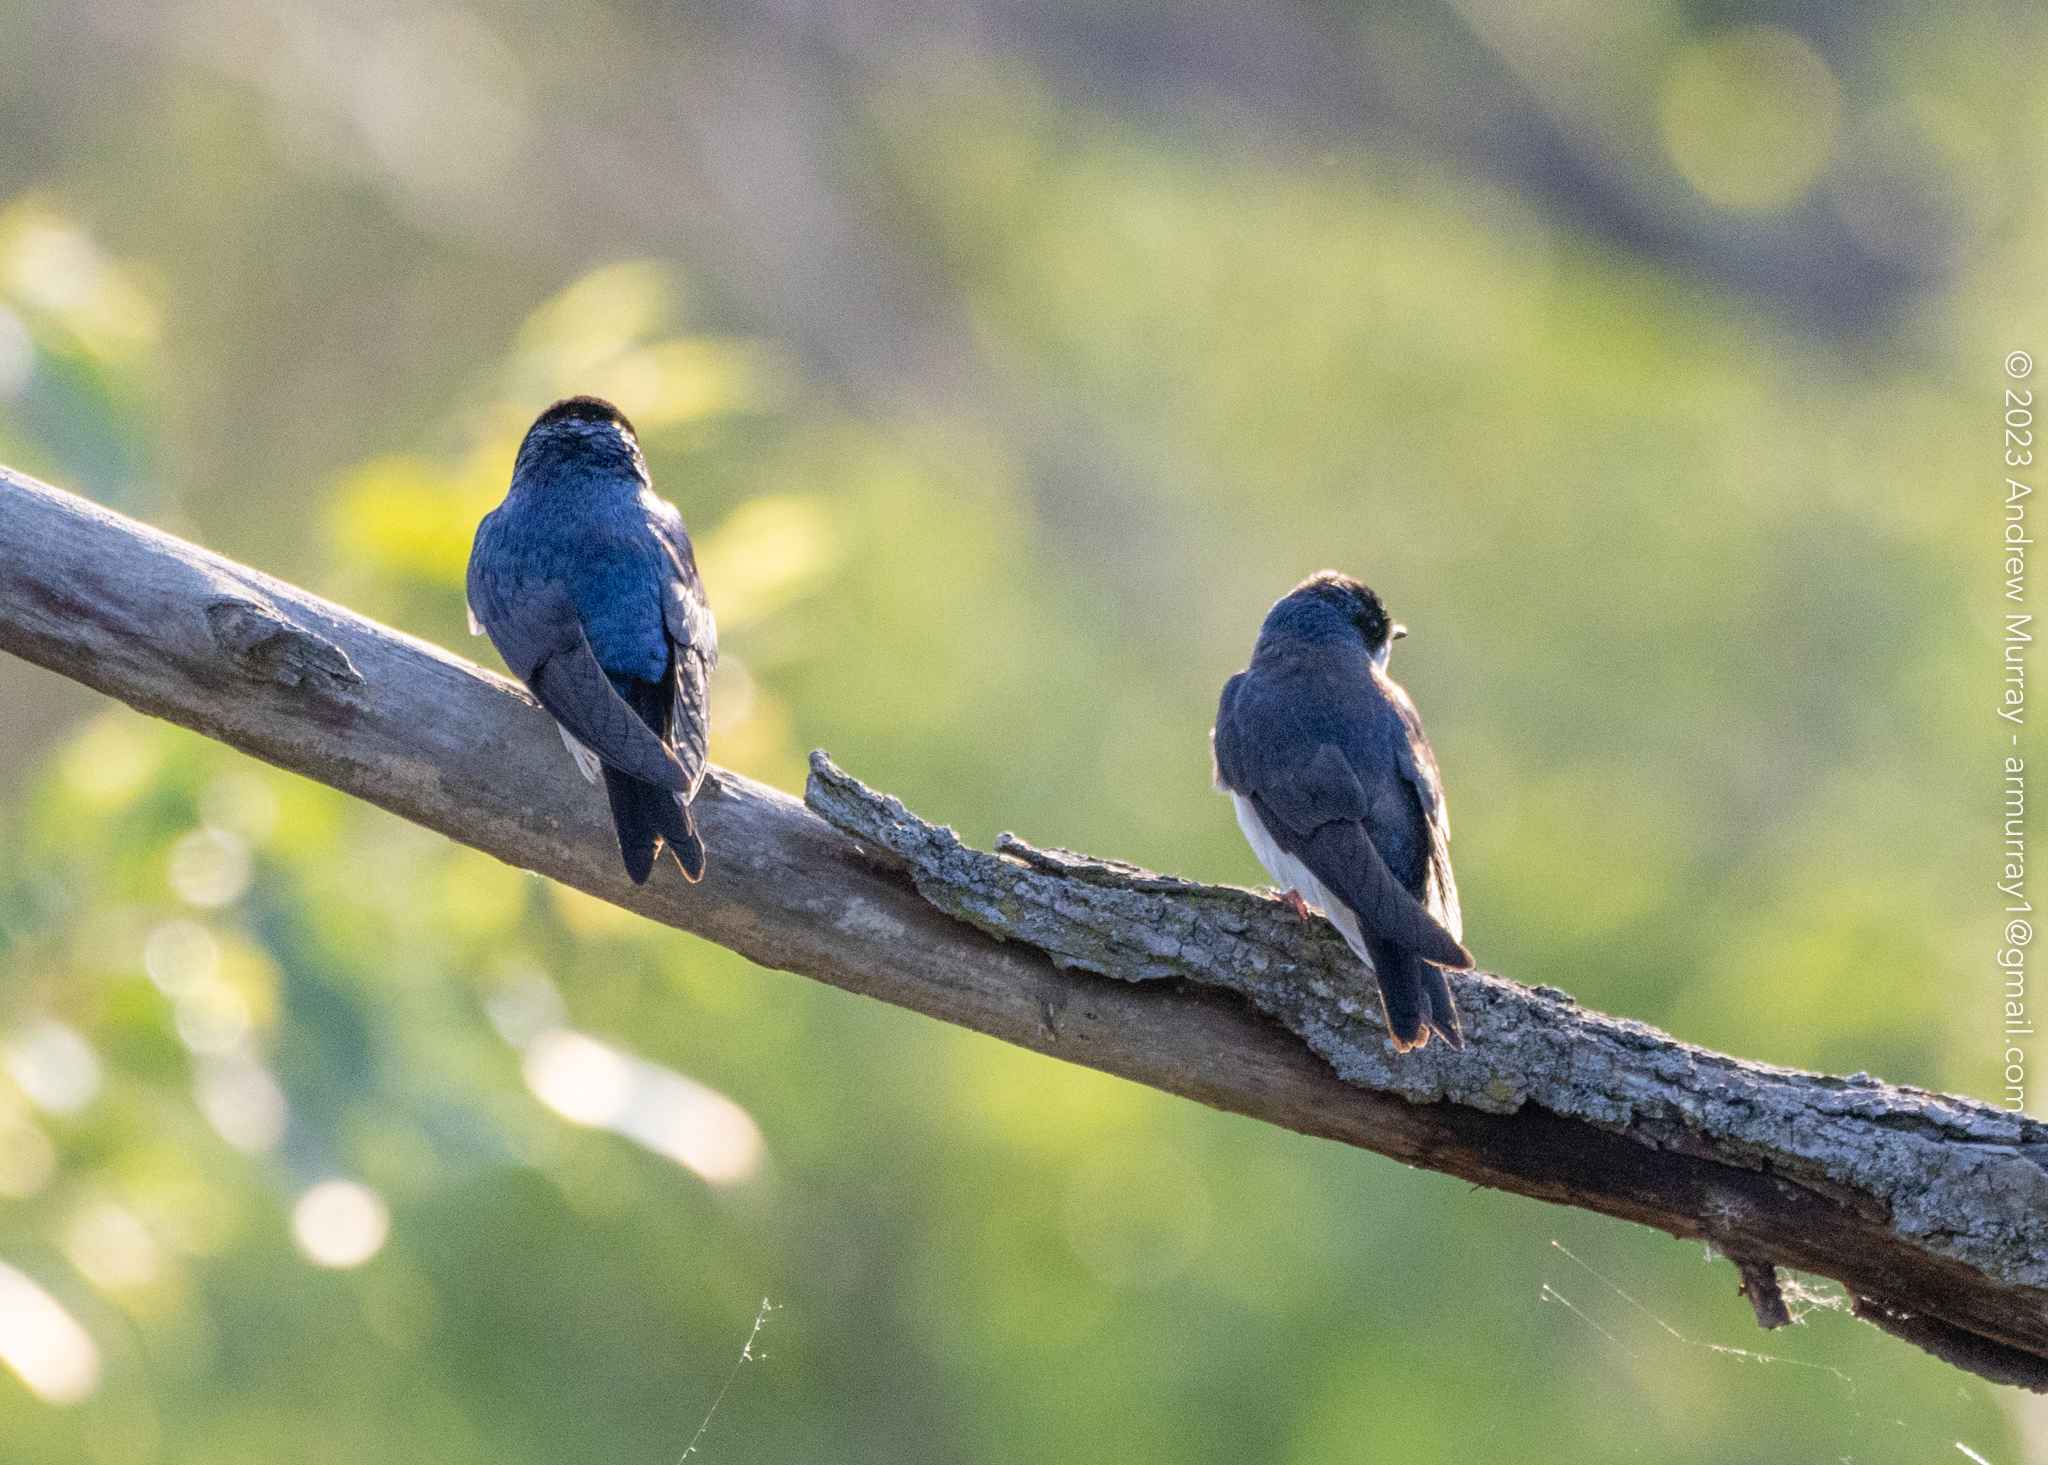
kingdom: Animalia
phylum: Chordata
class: Aves
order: Passeriformes
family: Hirundinidae
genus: Tachycineta
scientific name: Tachycineta bicolor
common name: Tree swallow
